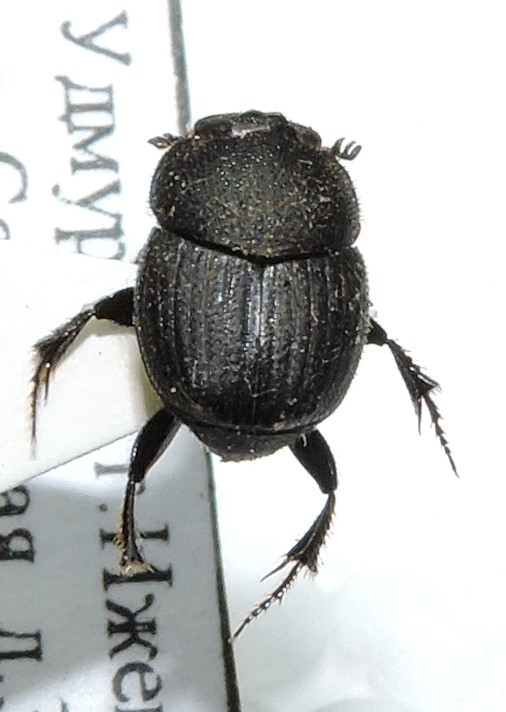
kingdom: Animalia
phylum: Arthropoda
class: Insecta
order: Coleoptera
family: Scarabaeidae
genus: Onthophagus
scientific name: Onthophagus semicornis
